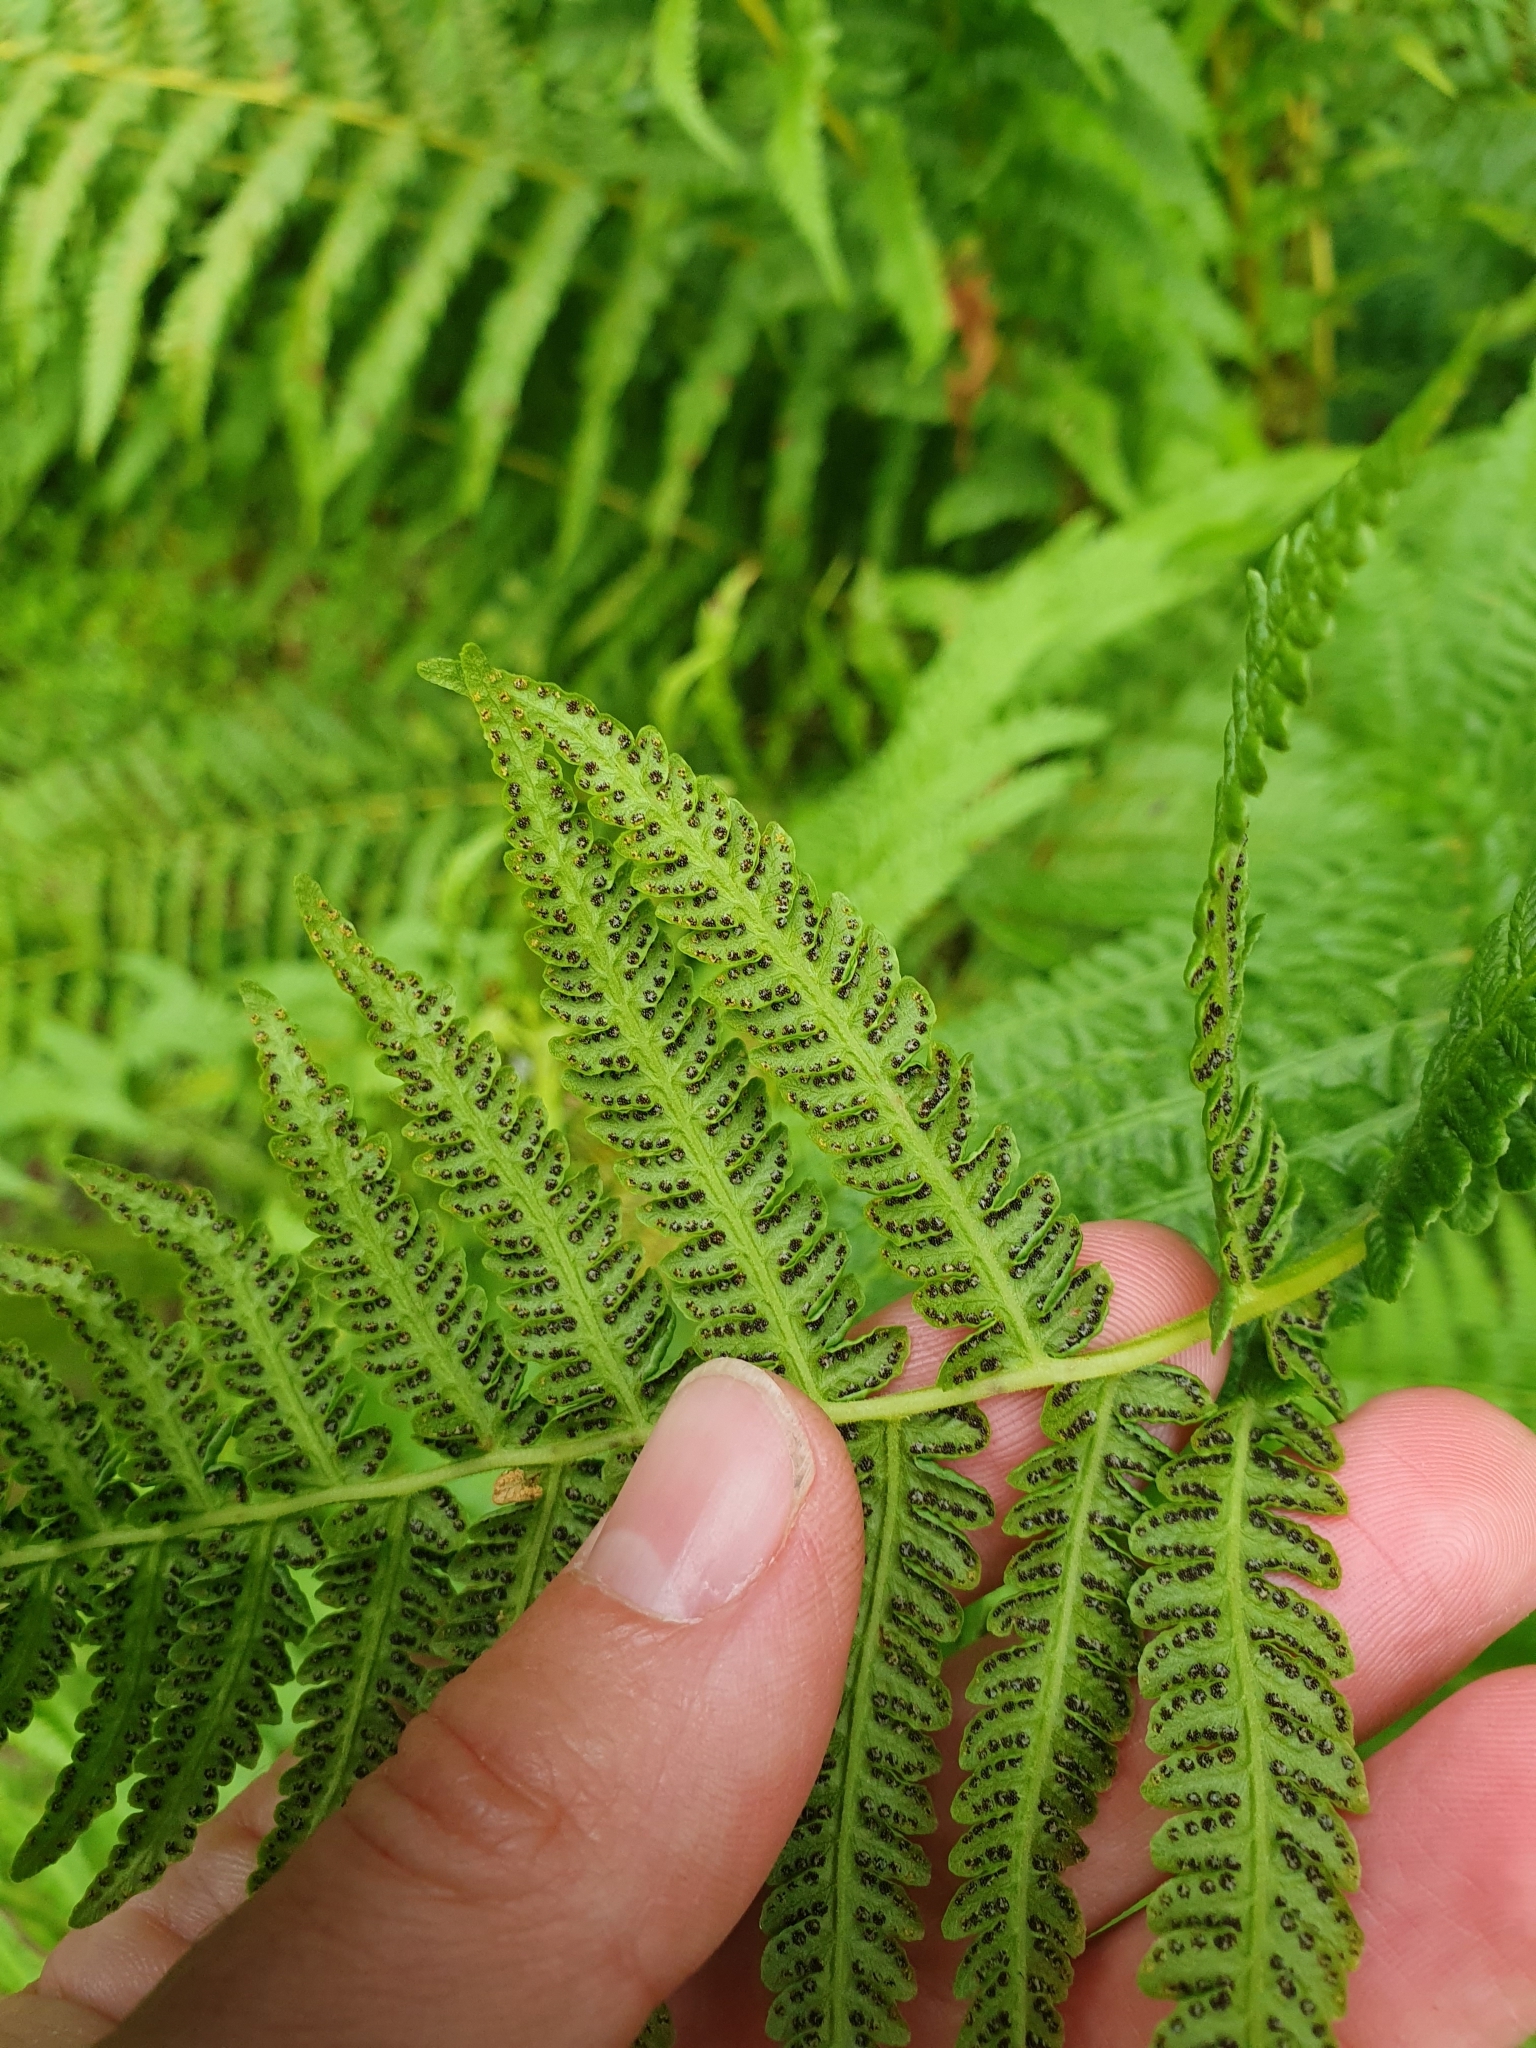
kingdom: Plantae
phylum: Tracheophyta
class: Polypodiopsida
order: Polypodiales
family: Thelypteridaceae
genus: Oreopteris
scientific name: Oreopteris limbosperma
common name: Lemon-scented fern
